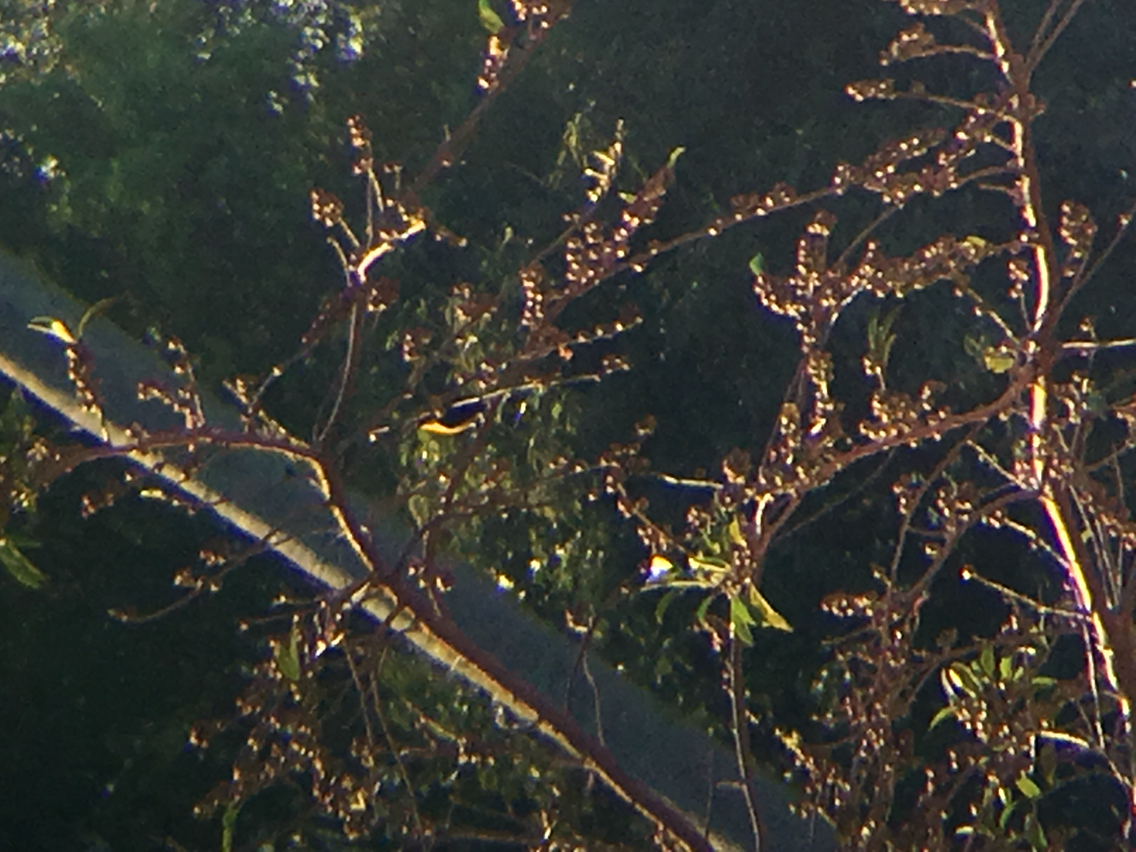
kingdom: Animalia
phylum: Chordata
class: Aves
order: Passeriformes
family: Fringillidae
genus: Euphonia
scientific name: Euphonia hirundinacea
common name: Yellow-throated euphonia
